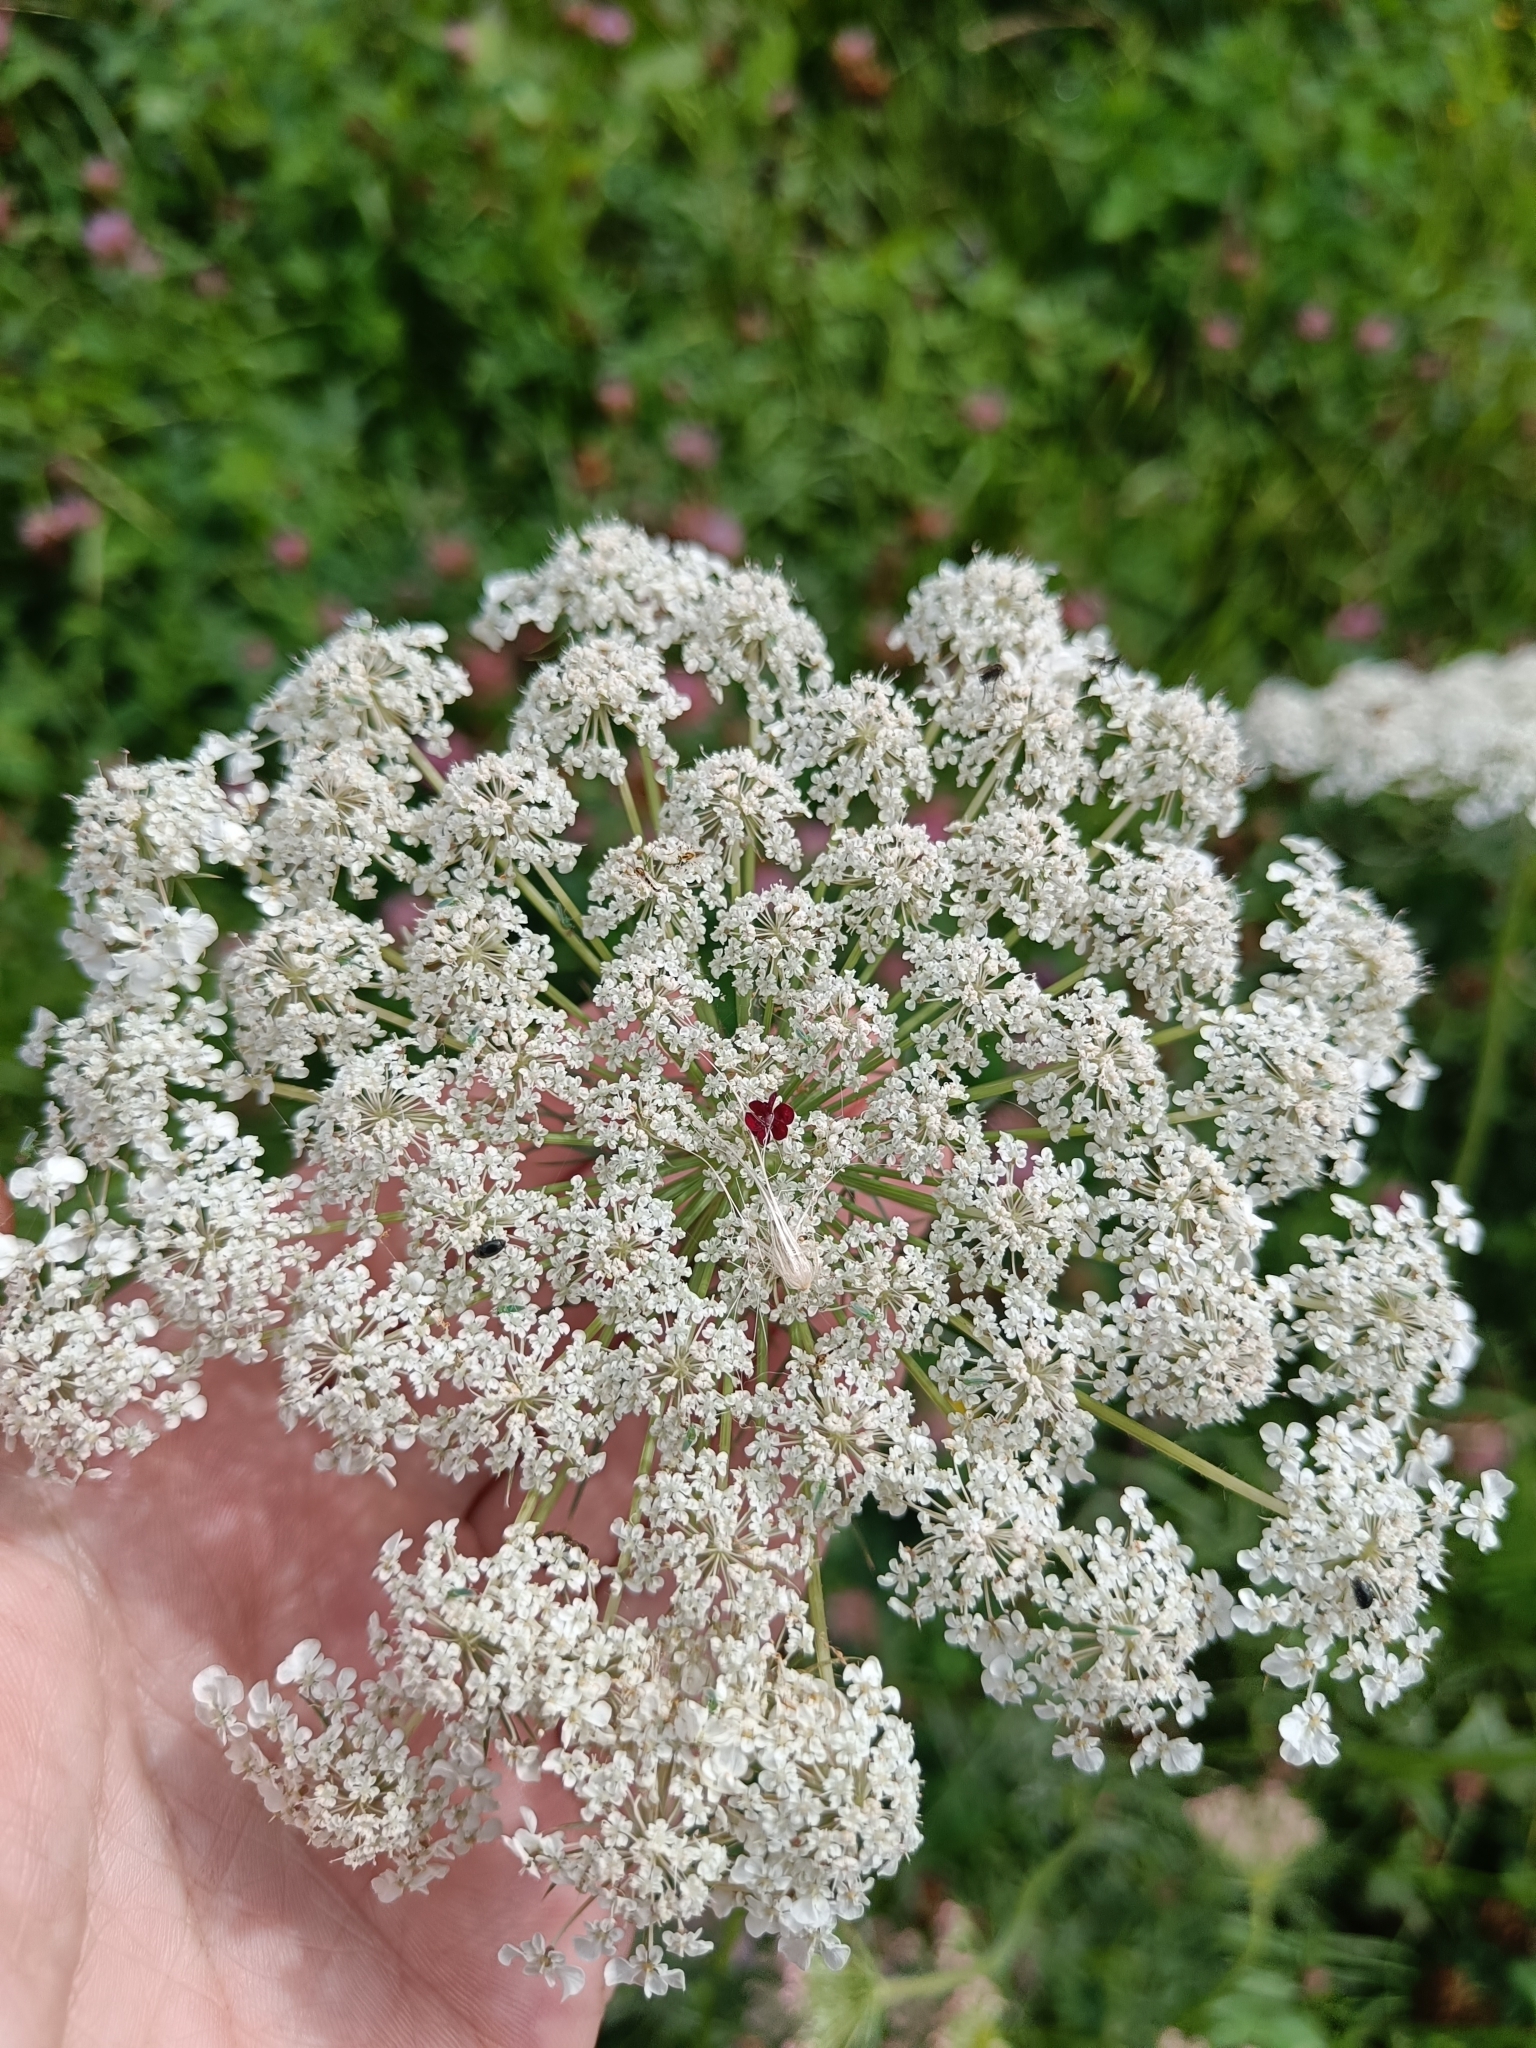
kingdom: Plantae
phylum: Tracheophyta
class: Magnoliopsida
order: Apiales
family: Apiaceae
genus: Daucus
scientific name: Daucus carota
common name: Wild carrot
